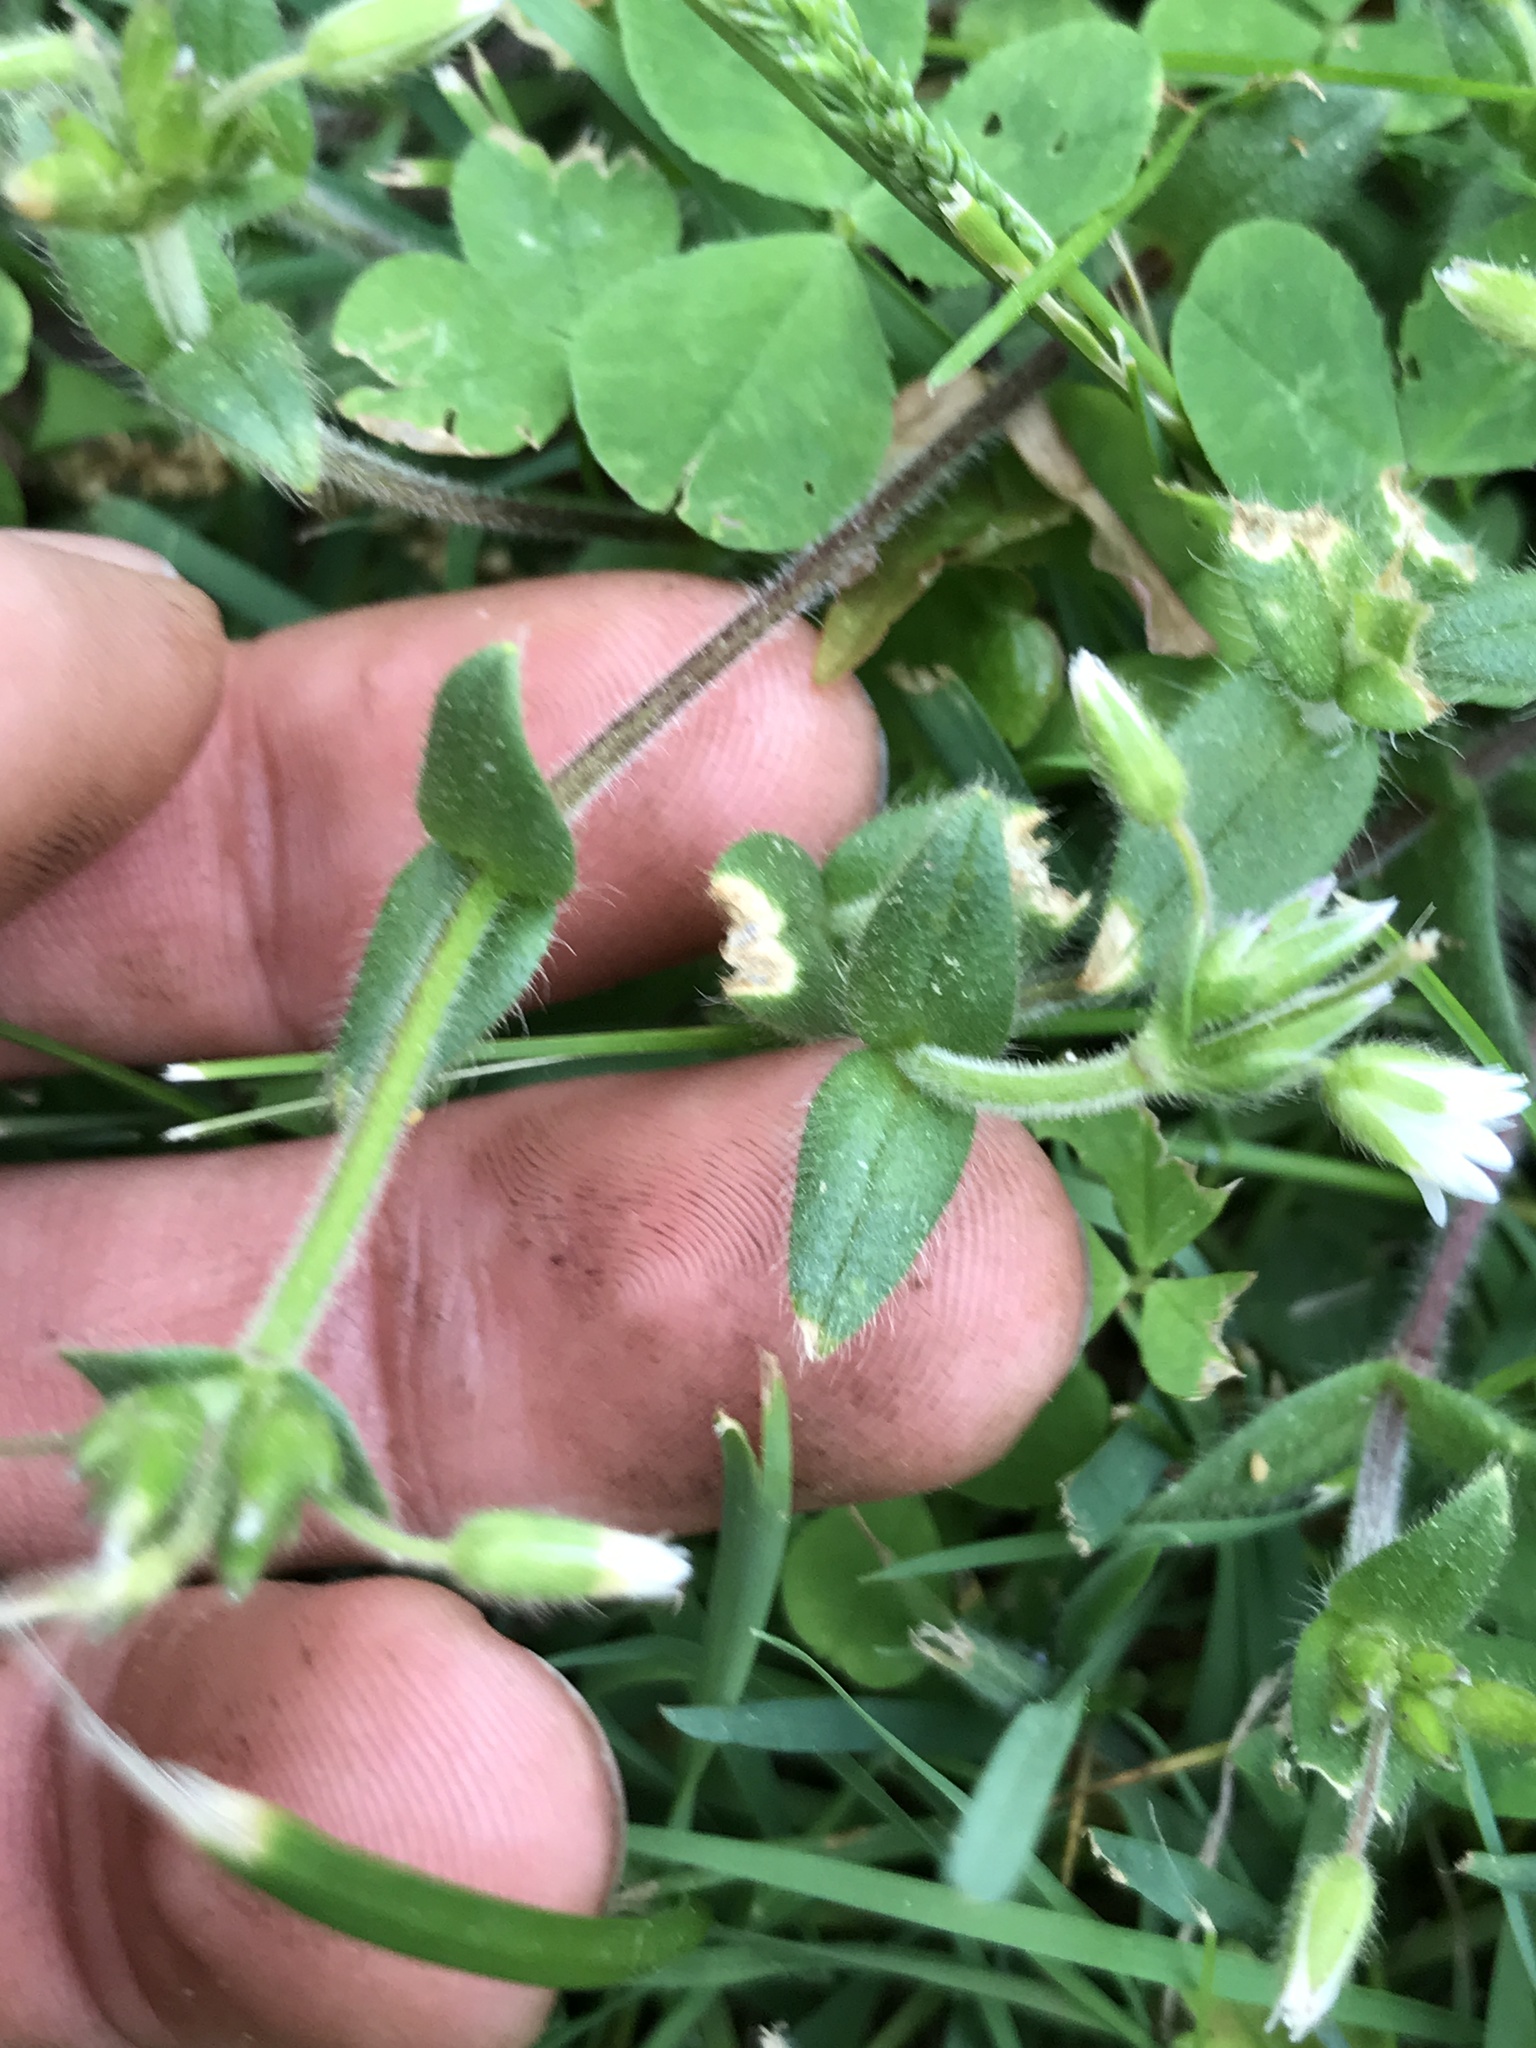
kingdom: Plantae
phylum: Tracheophyta
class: Magnoliopsida
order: Caryophyllales
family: Caryophyllaceae
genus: Cerastium
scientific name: Cerastium fontanum
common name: Common mouse-ear
